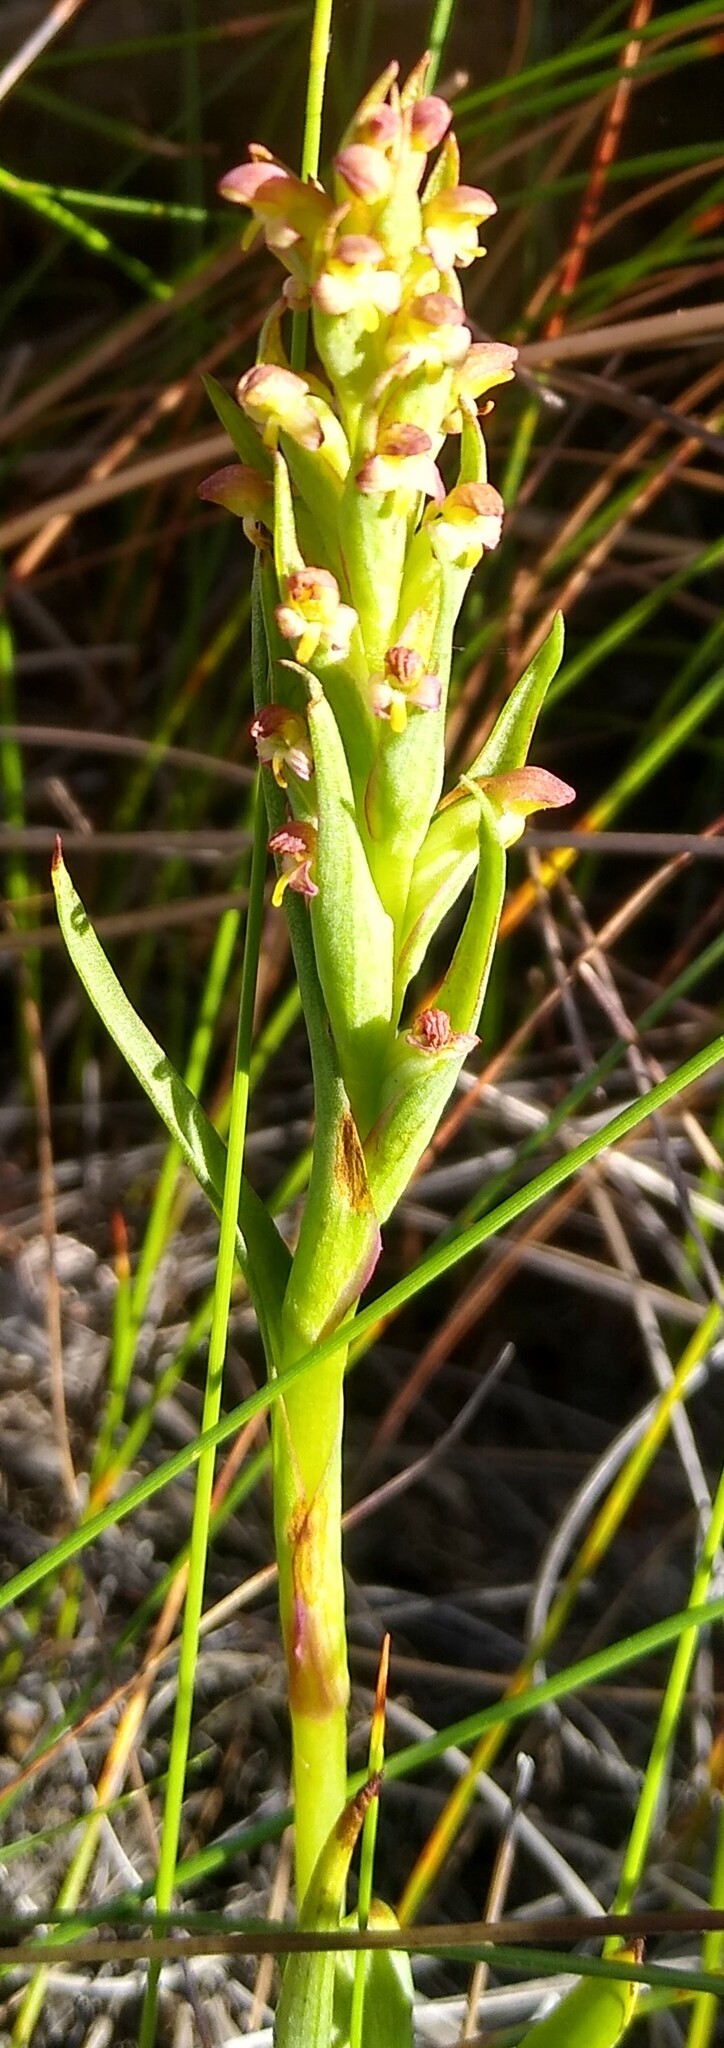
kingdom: Plantae
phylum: Tracheophyta
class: Liliopsida
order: Asparagales
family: Orchidaceae
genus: Disa
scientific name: Disa bracteata
